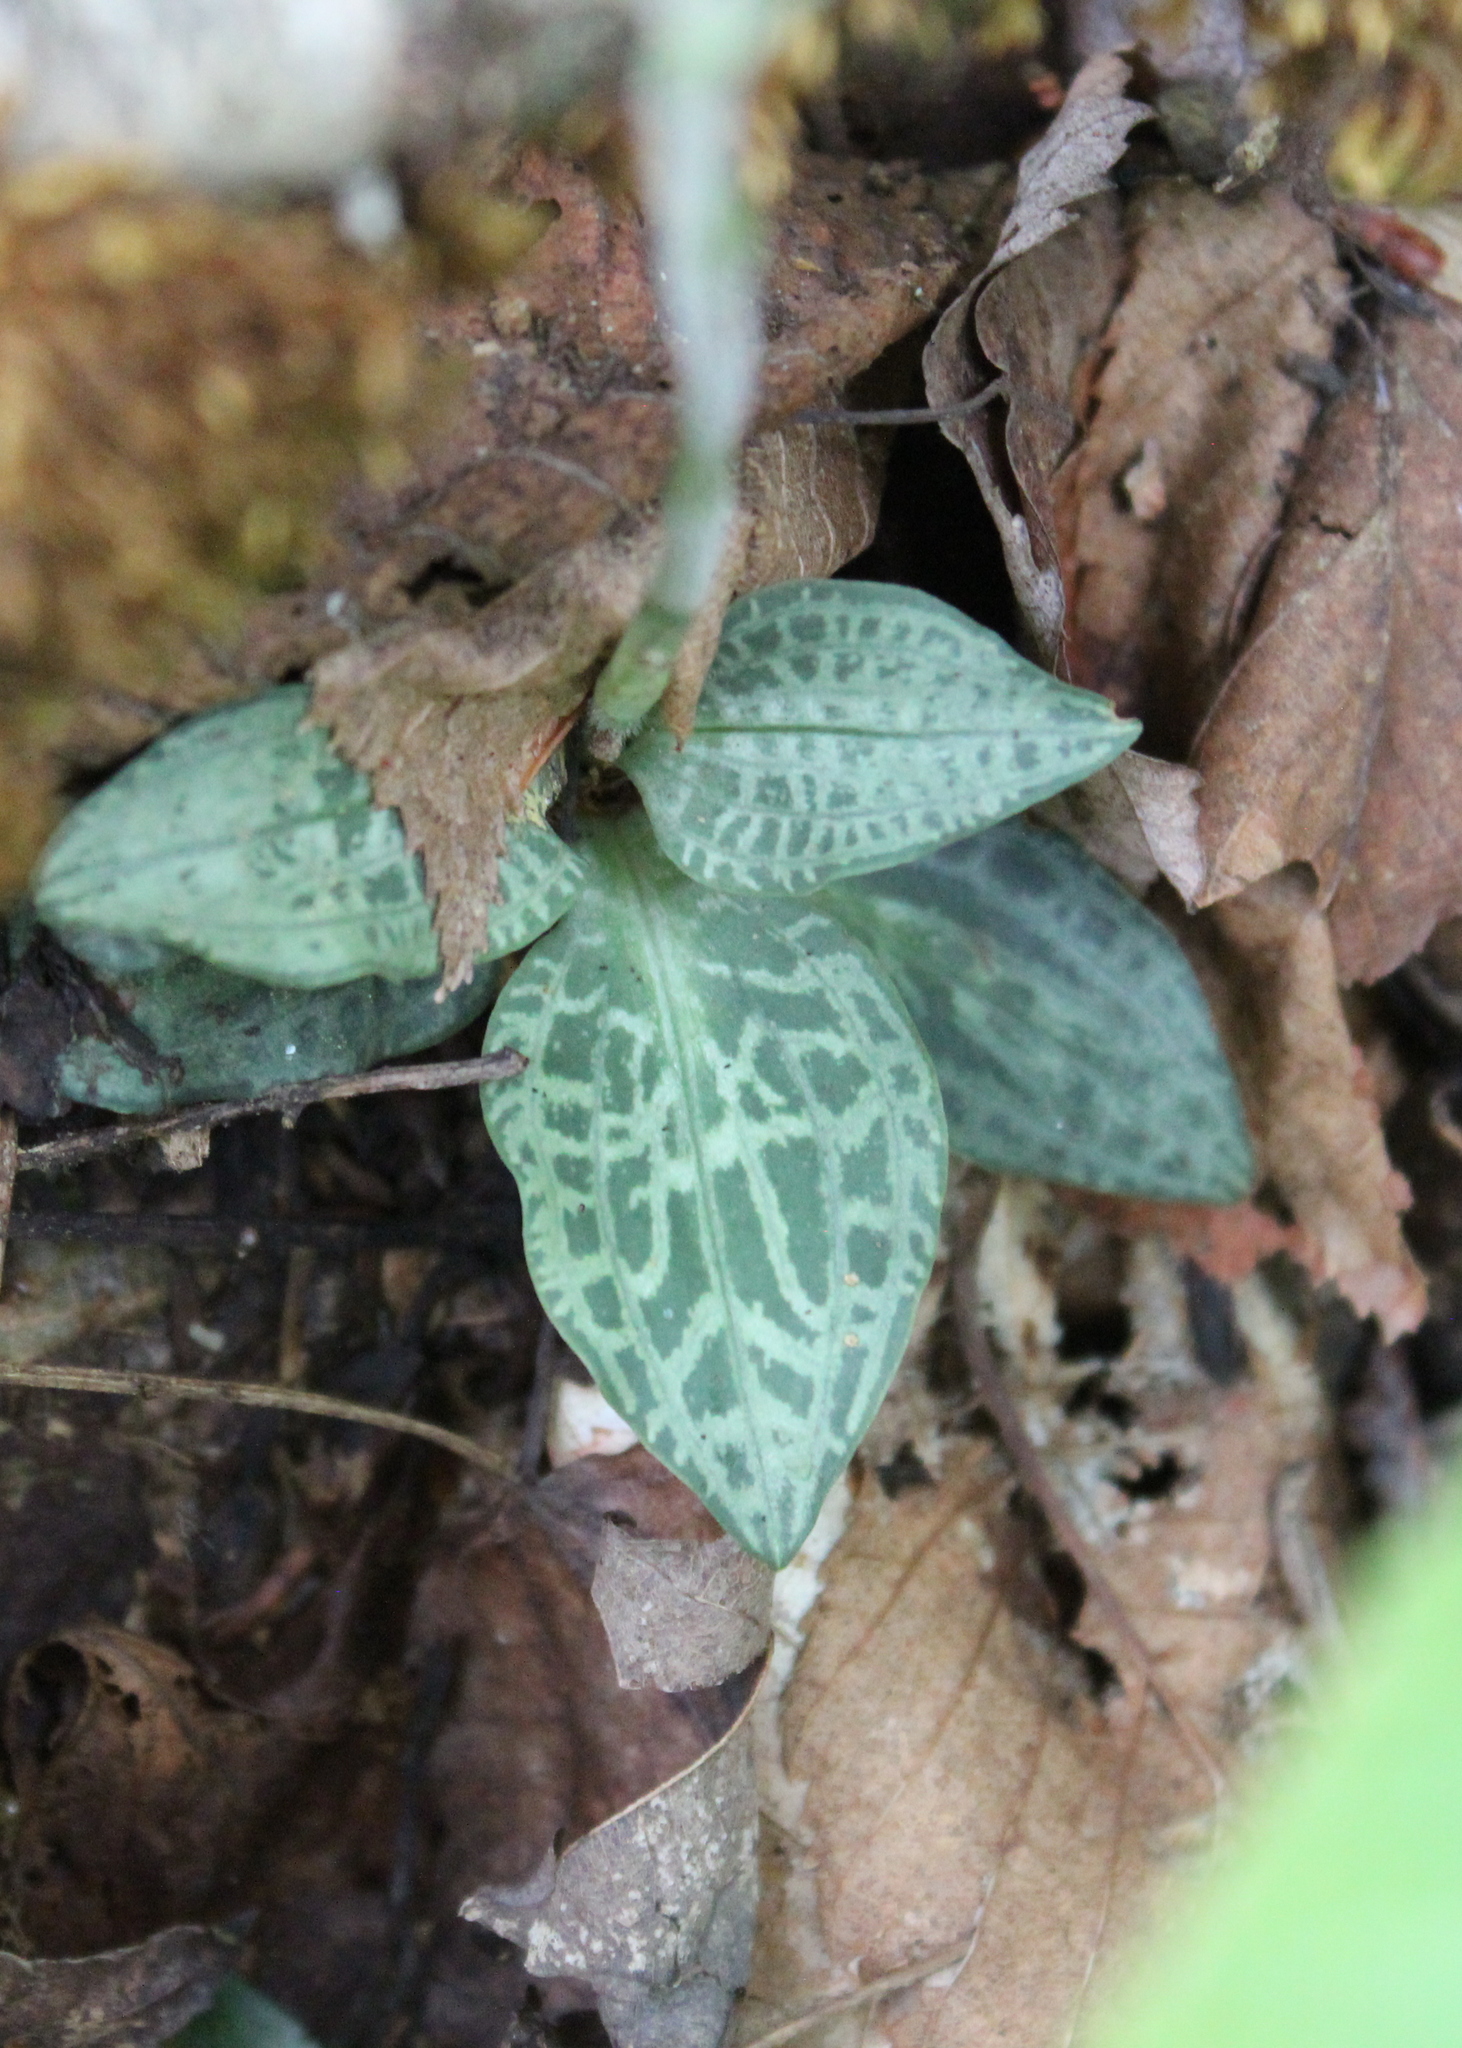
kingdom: Plantae
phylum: Tracheophyta
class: Liliopsida
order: Asparagales
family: Orchidaceae
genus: Goodyera
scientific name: Goodyera tesselata
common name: Checkered rattlesnake-plantain
